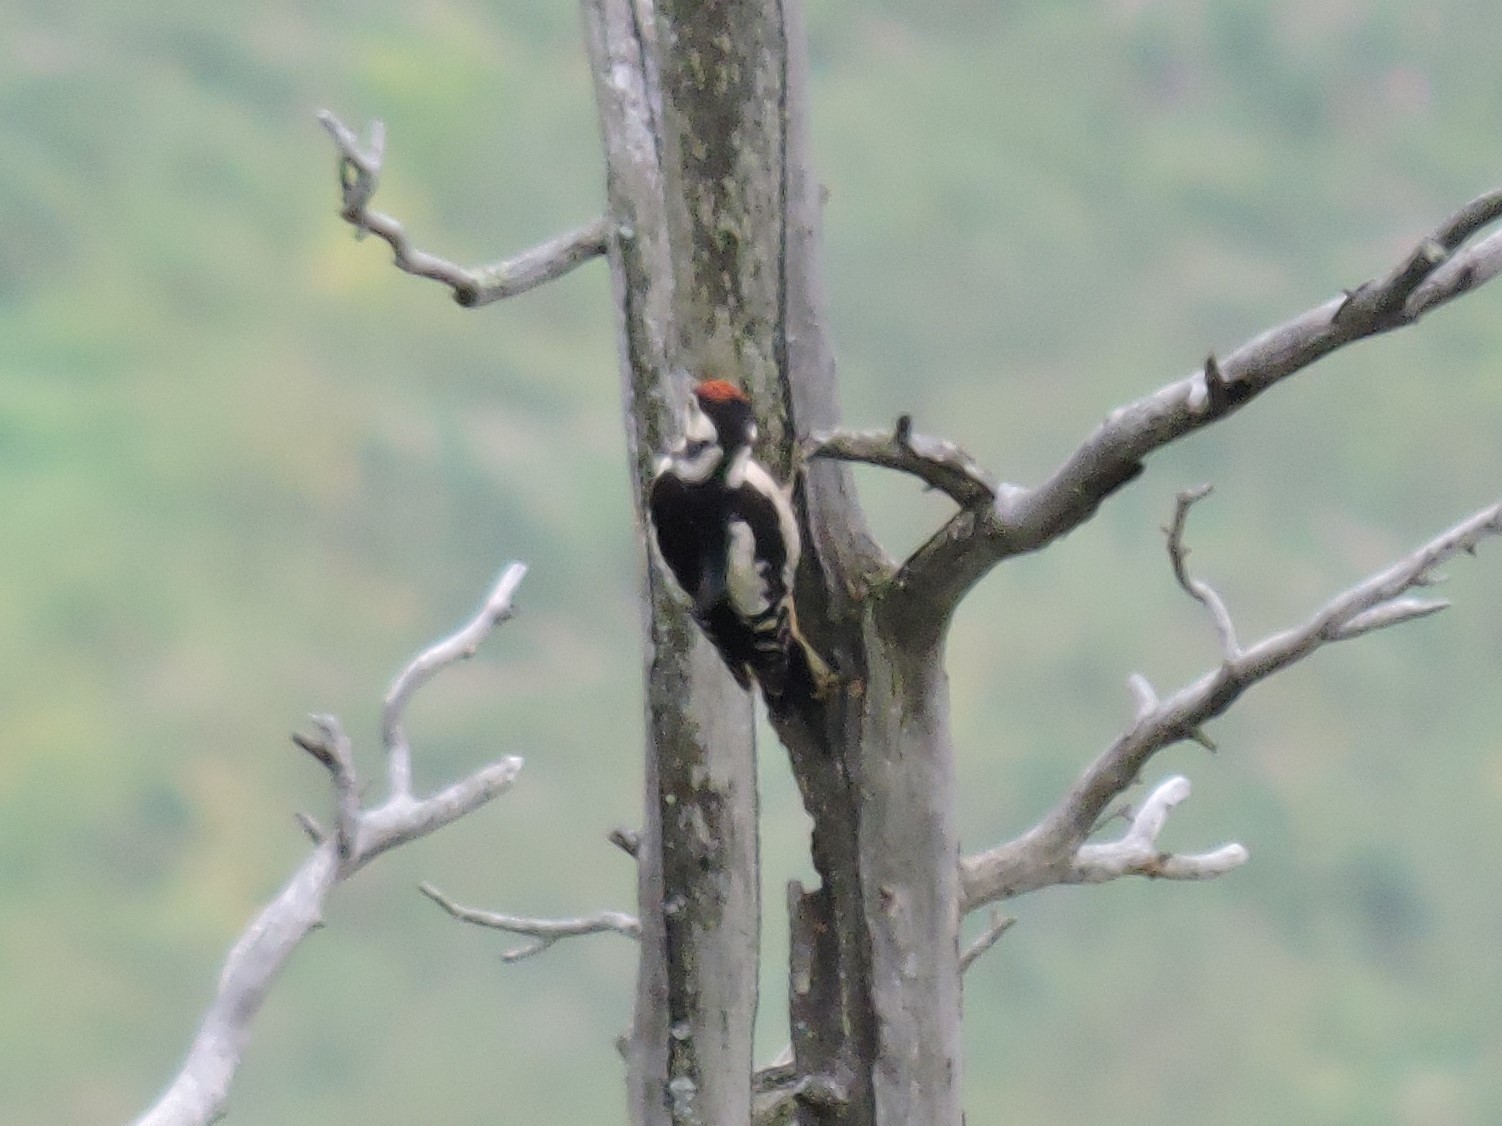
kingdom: Animalia
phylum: Chordata
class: Aves
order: Piciformes
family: Picidae
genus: Dendrocopos
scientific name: Dendrocopos major
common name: Great spotted woodpecker
